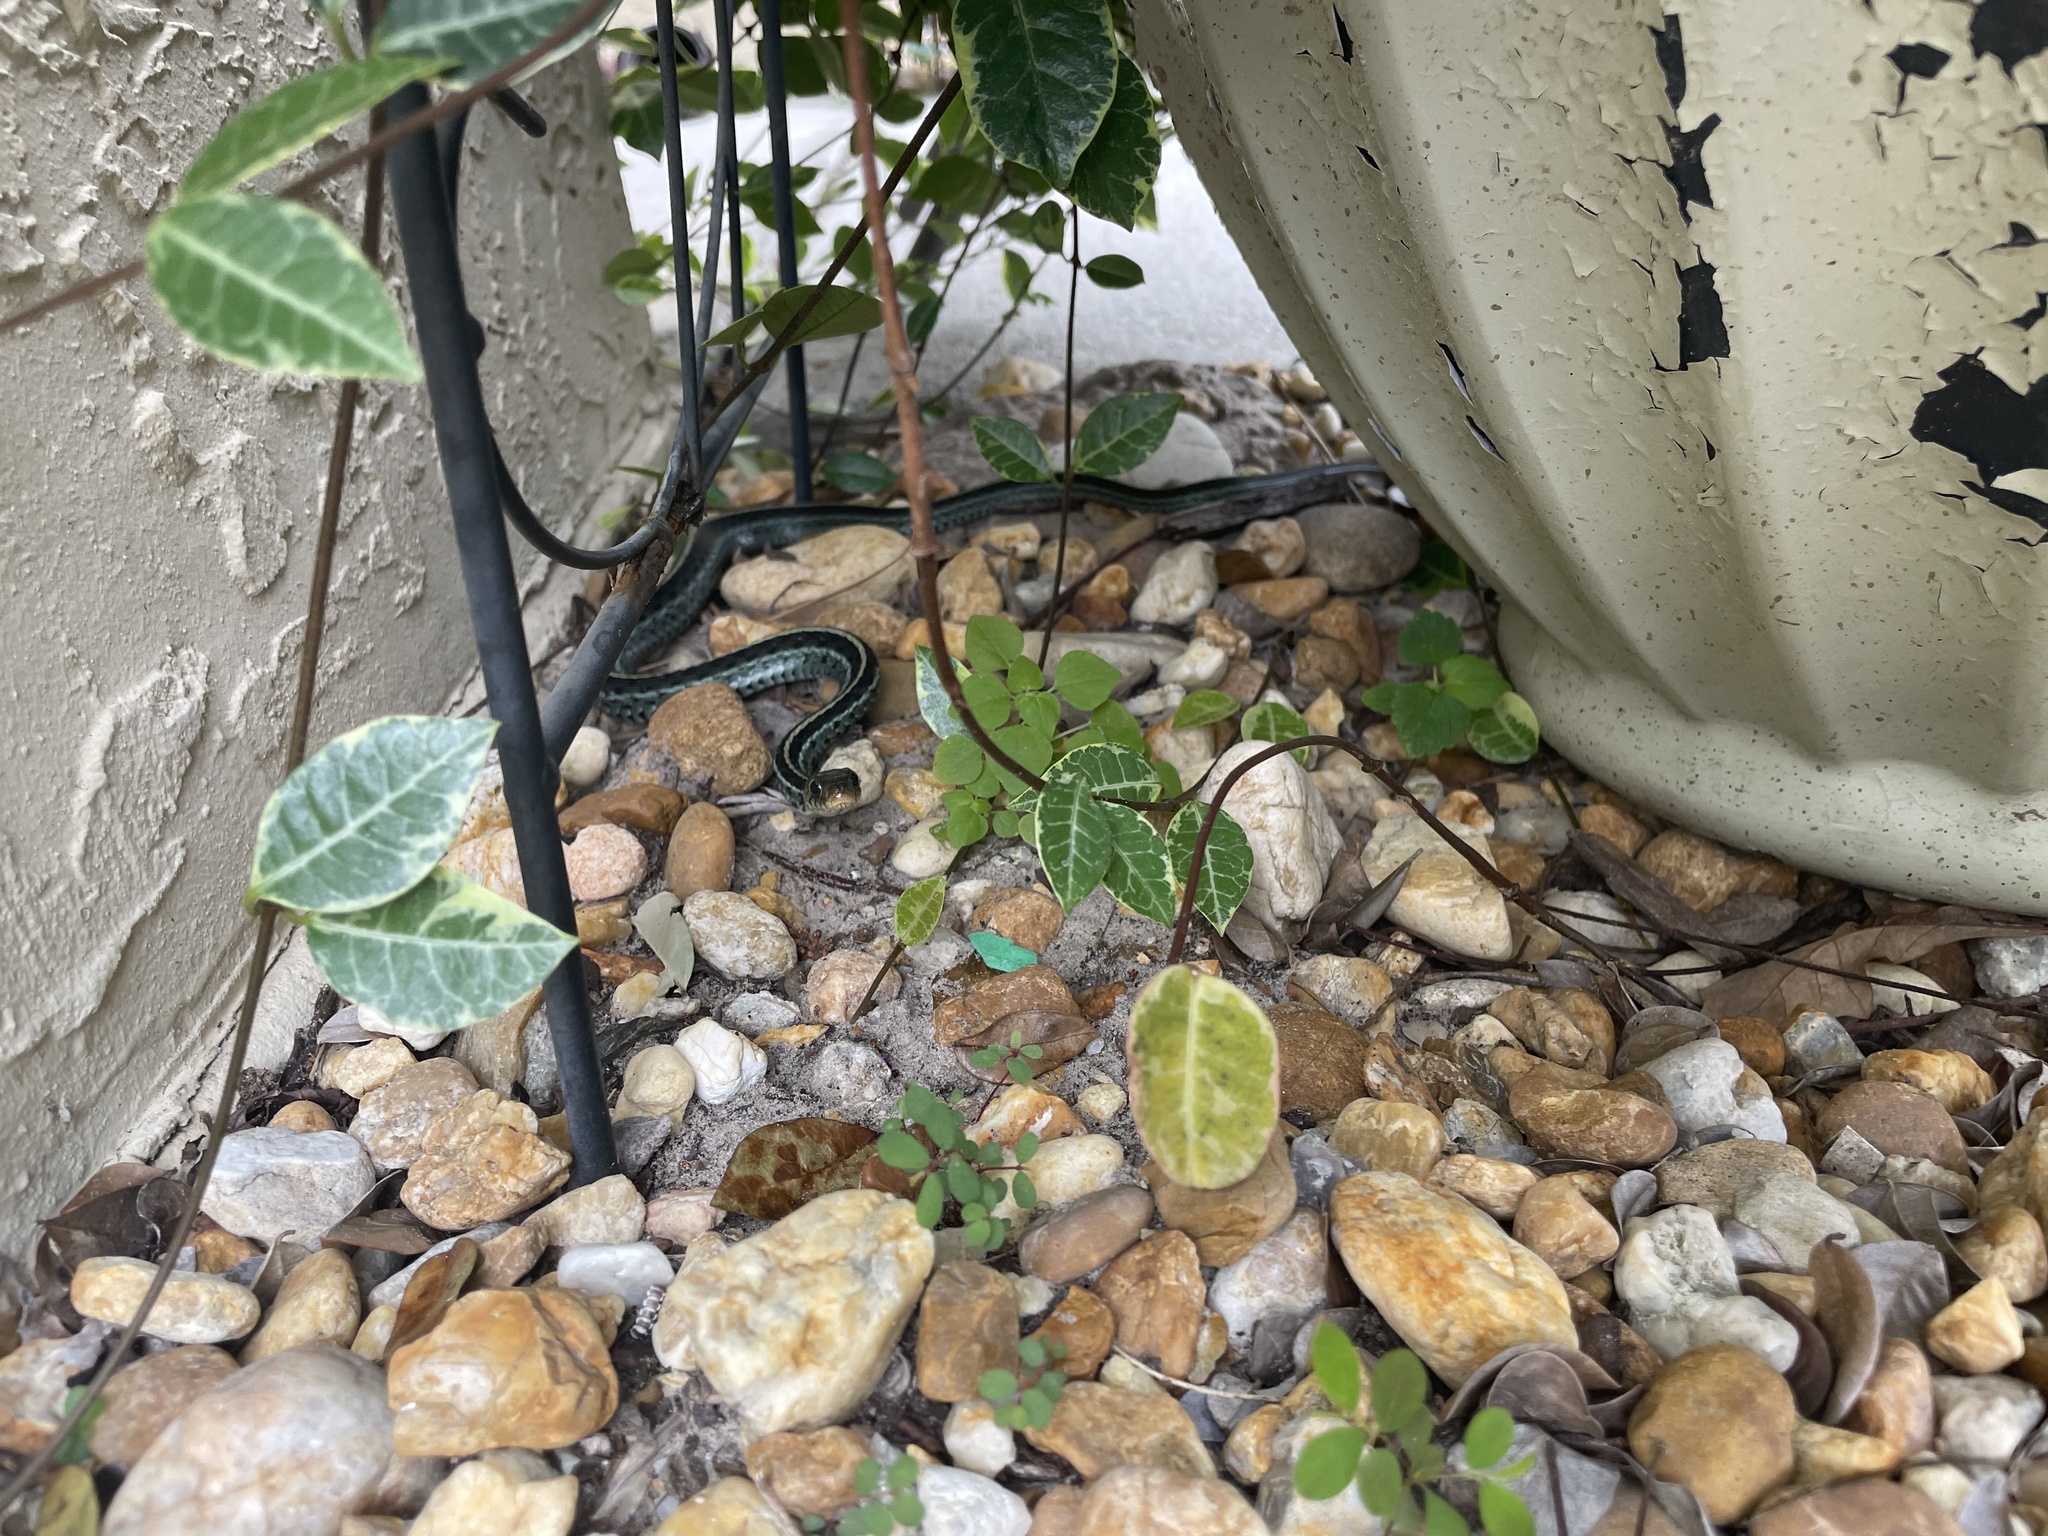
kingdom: Animalia
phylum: Chordata
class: Squamata
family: Colubridae
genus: Thamnophis
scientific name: Thamnophis sirtalis
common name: Common garter snake
